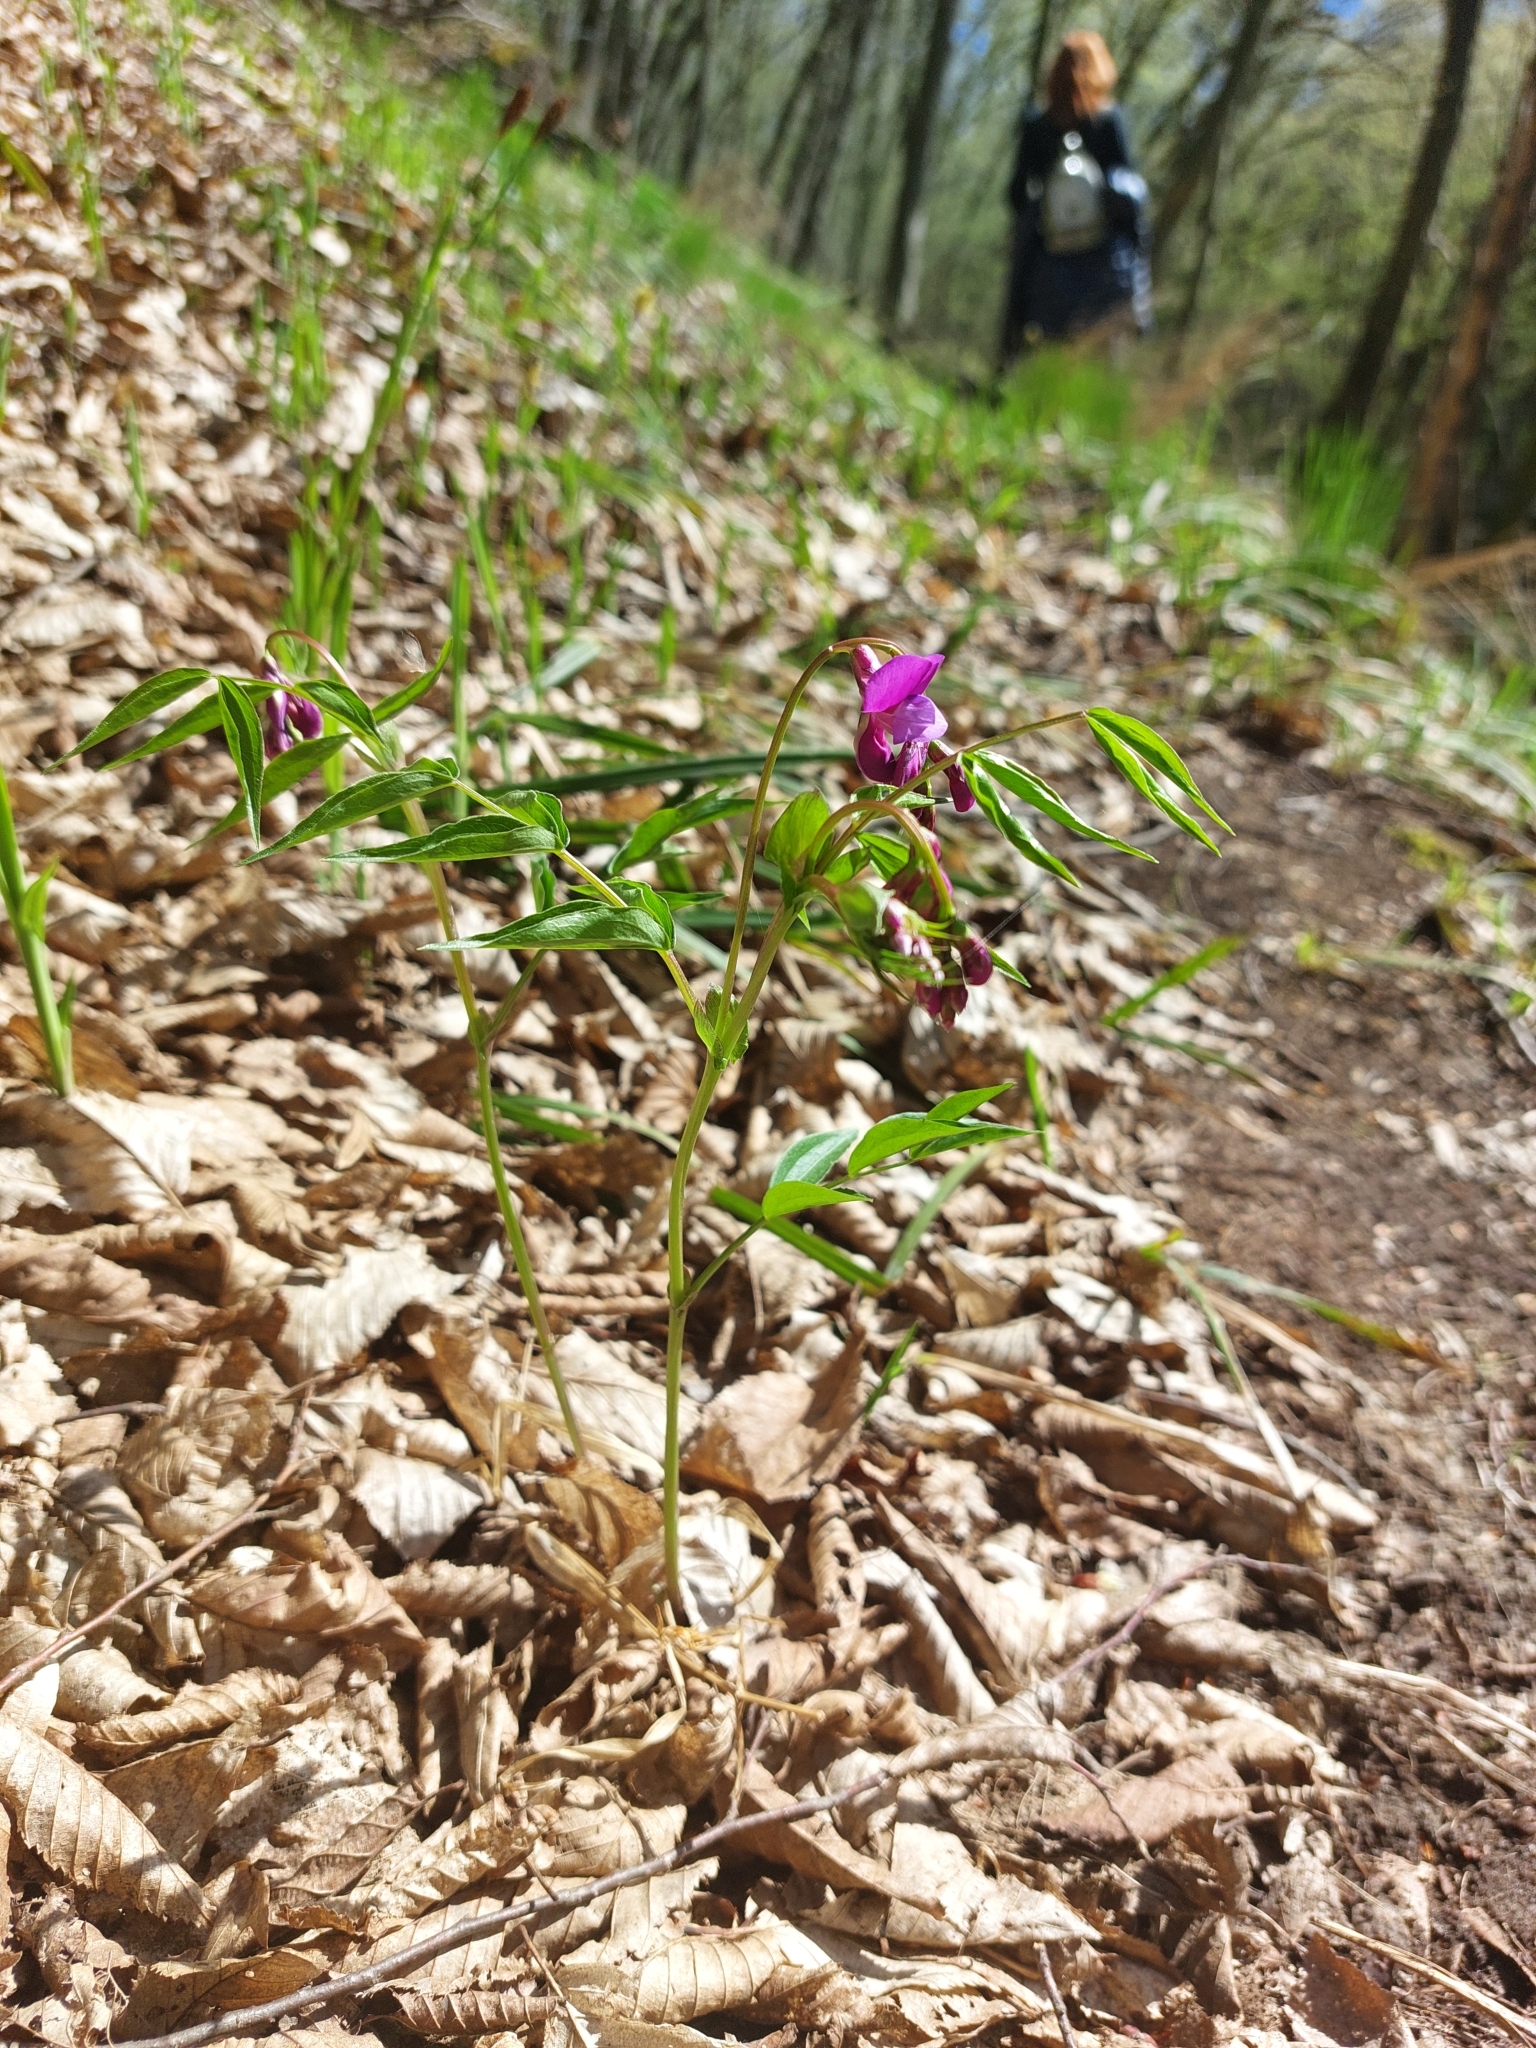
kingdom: Plantae
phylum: Tracheophyta
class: Magnoliopsida
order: Fabales
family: Fabaceae
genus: Lathyrus
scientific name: Lathyrus vernus
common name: Spring pea
